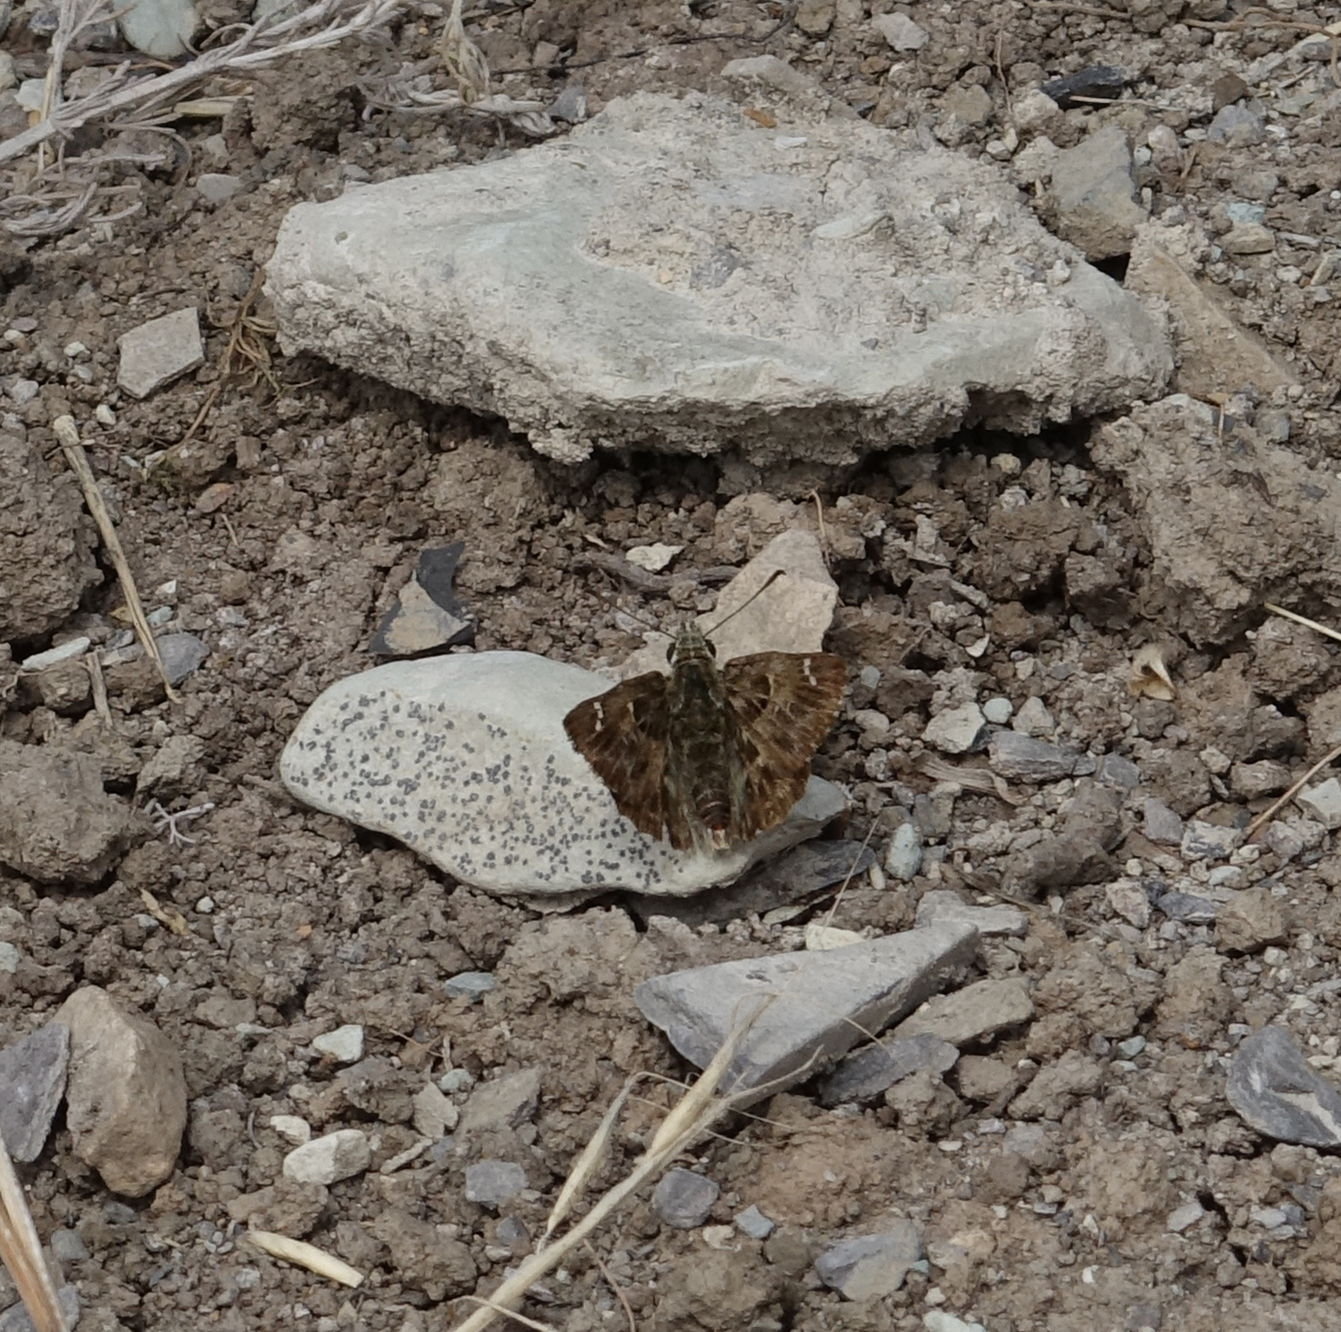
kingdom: Animalia
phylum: Arthropoda
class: Insecta
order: Lepidoptera
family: Hesperiidae
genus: Carcharodus
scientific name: Carcharodus alceae
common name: Mallow skipper
